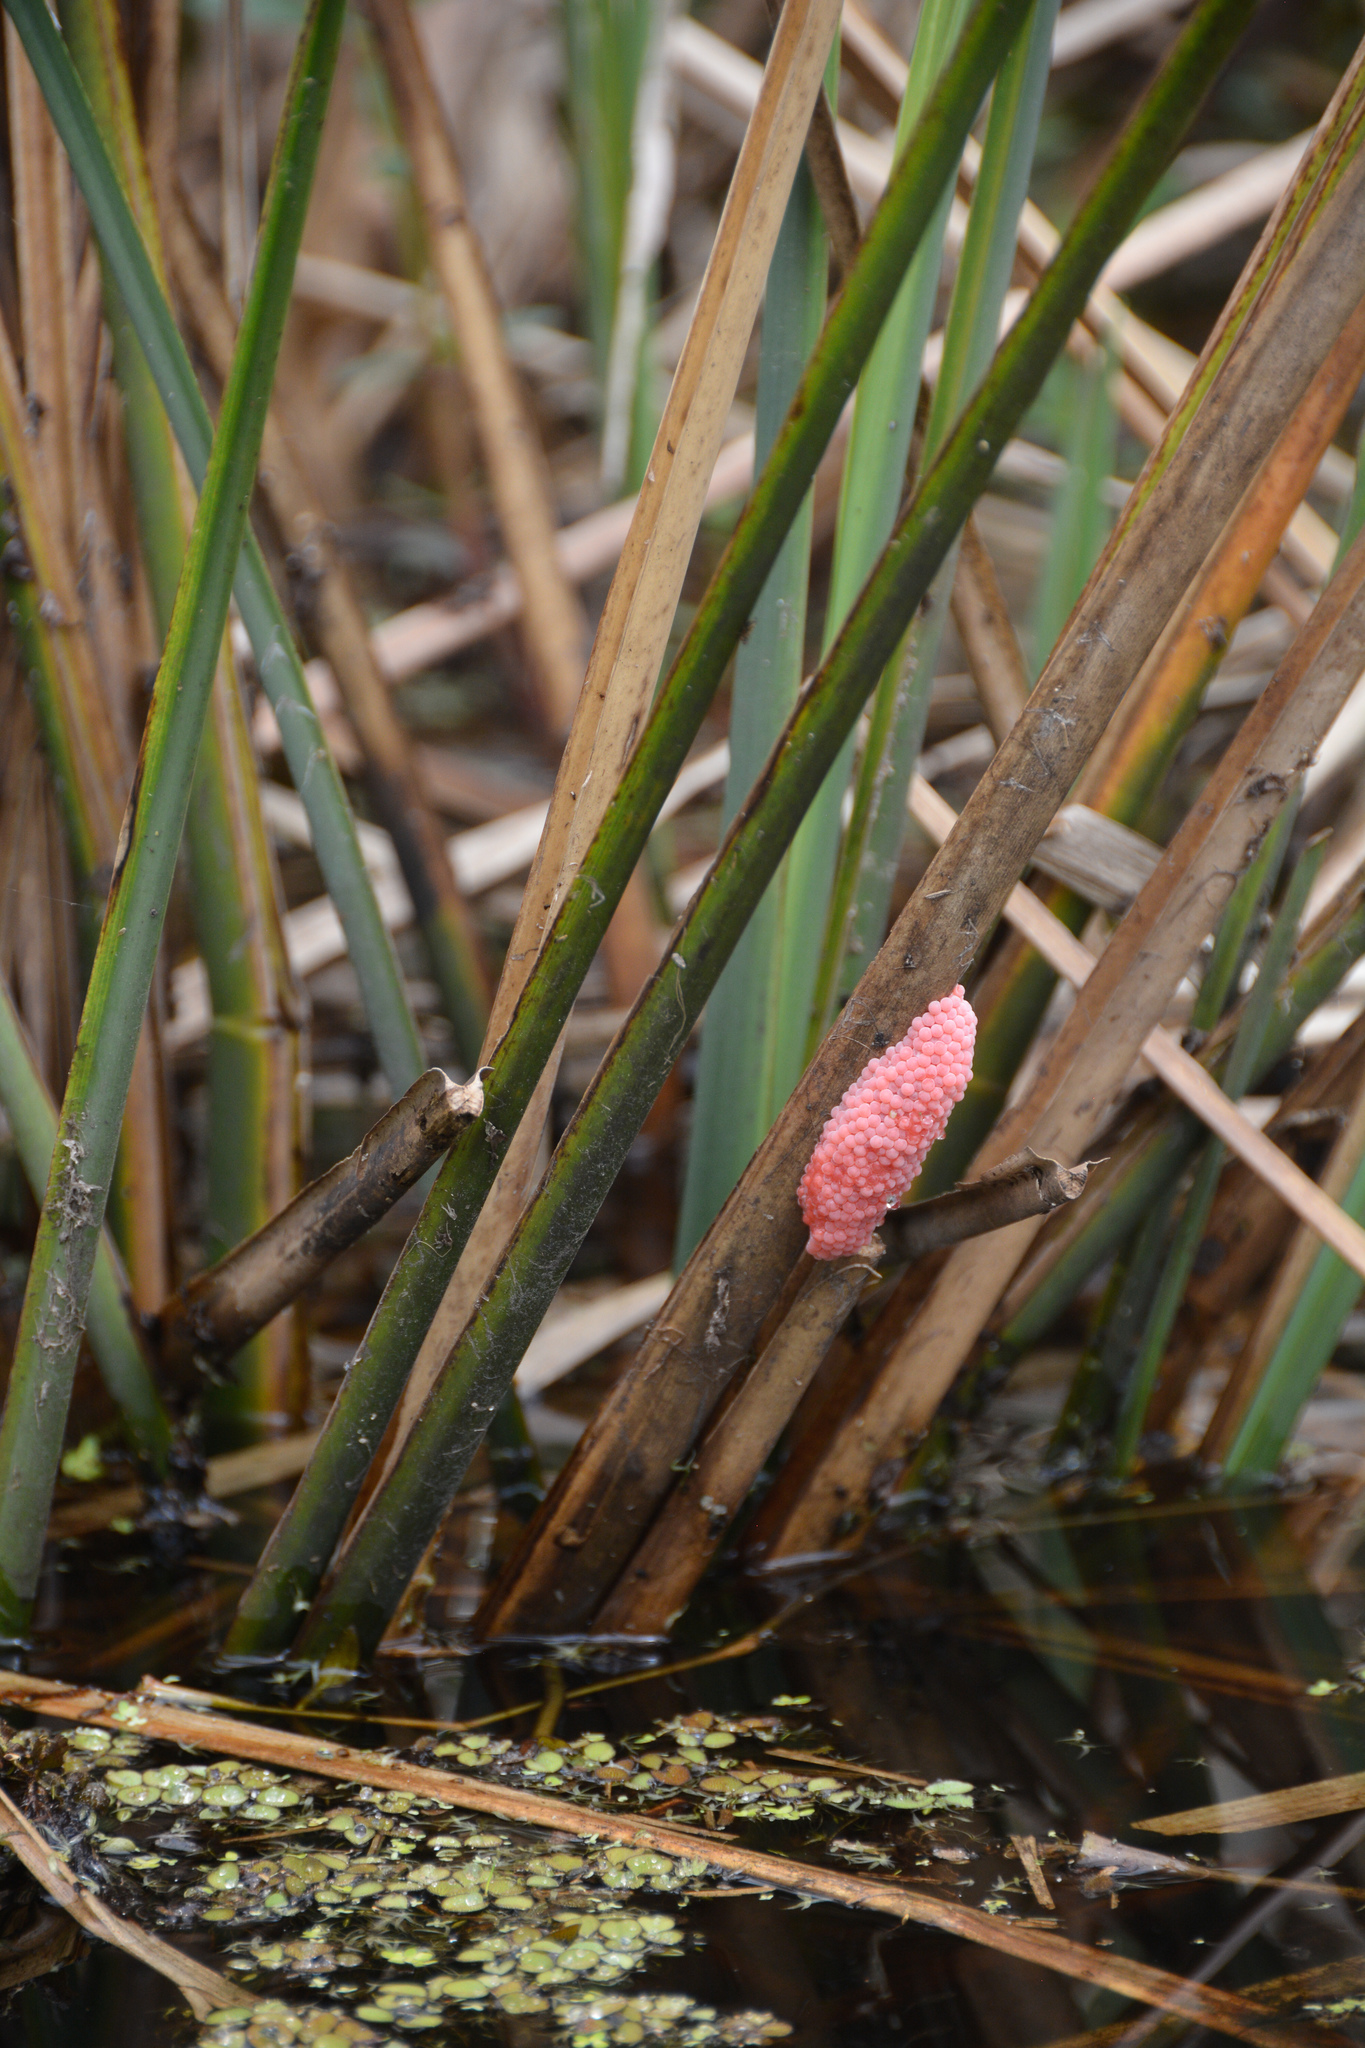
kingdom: Animalia
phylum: Mollusca
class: Gastropoda
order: Architaenioglossa
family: Ampullariidae
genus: Pomacea
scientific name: Pomacea maculata
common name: Giant applesnail
